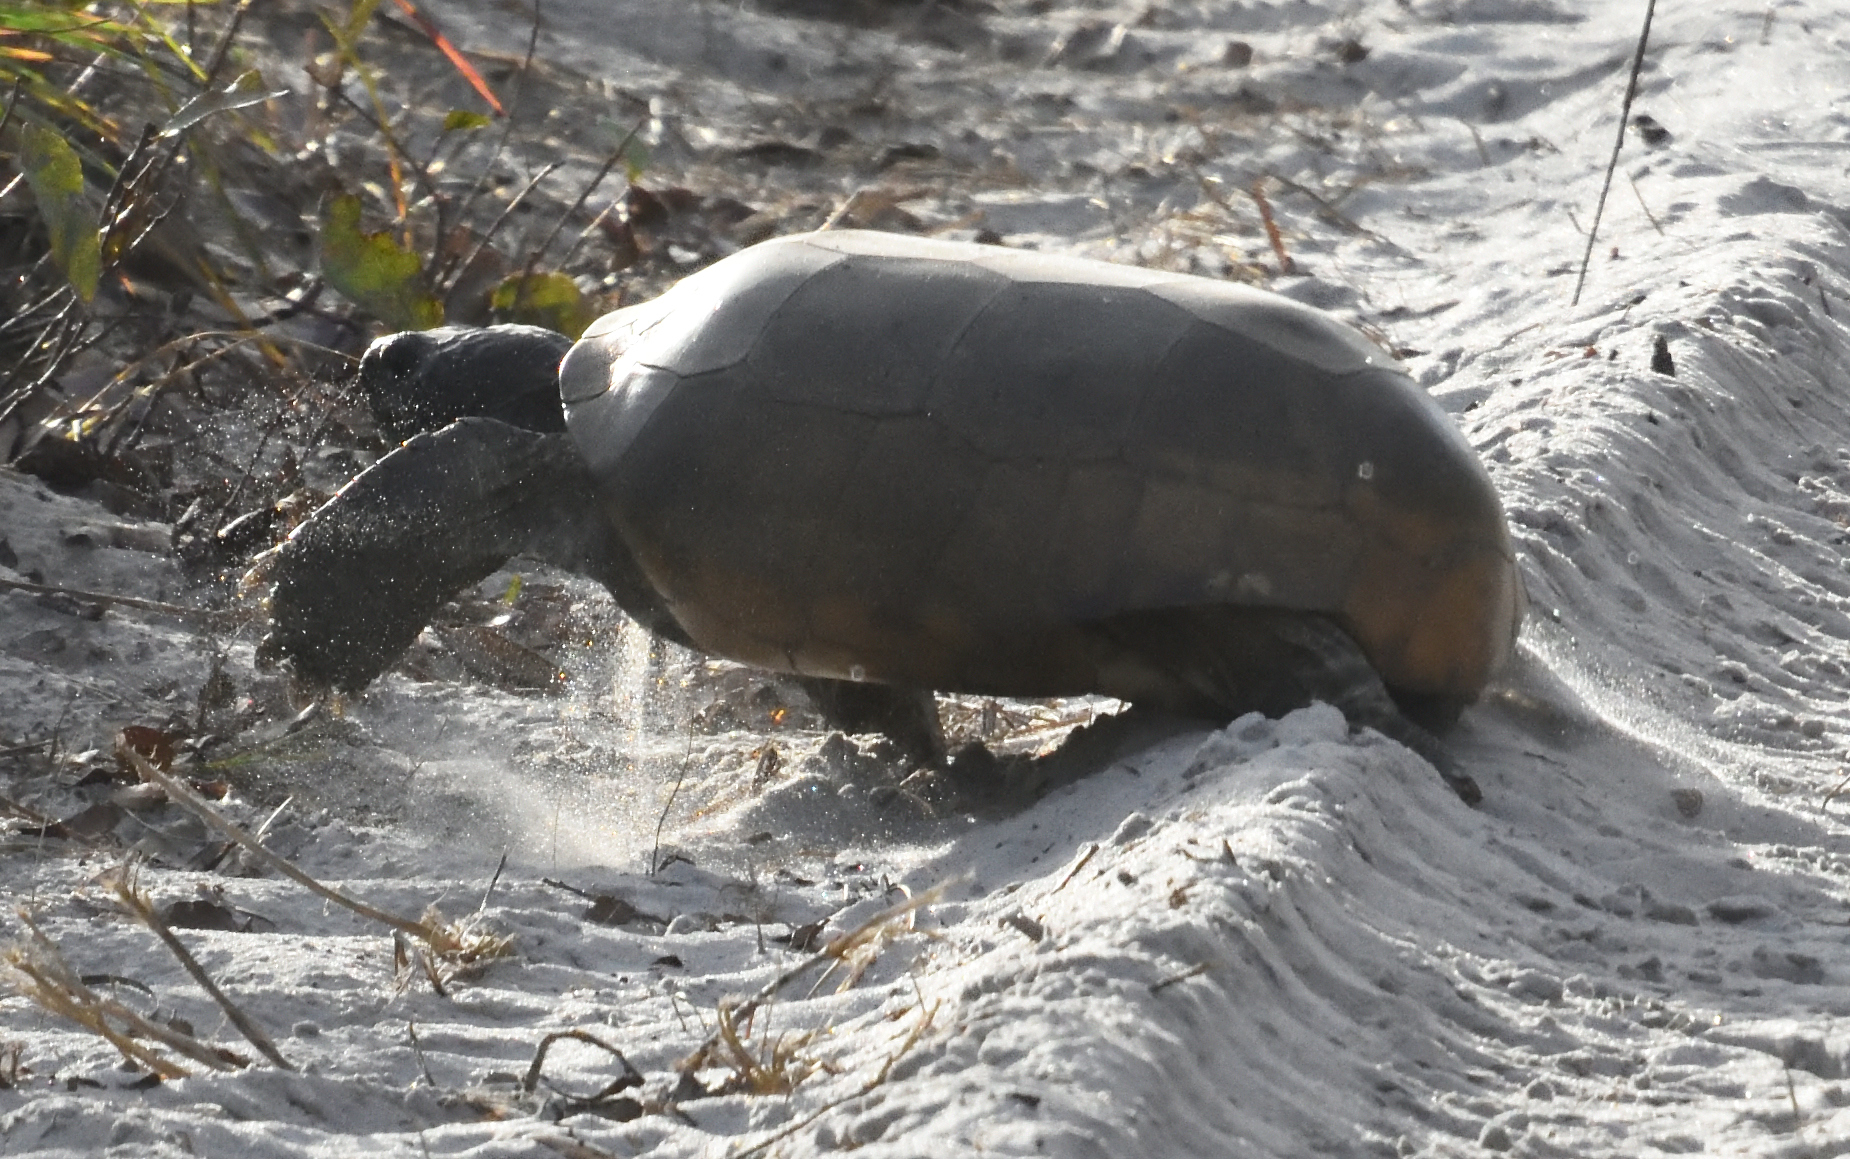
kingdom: Animalia
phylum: Chordata
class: Testudines
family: Testudinidae
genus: Gopherus
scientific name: Gopherus polyphemus
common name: Florida gopher tortoise
